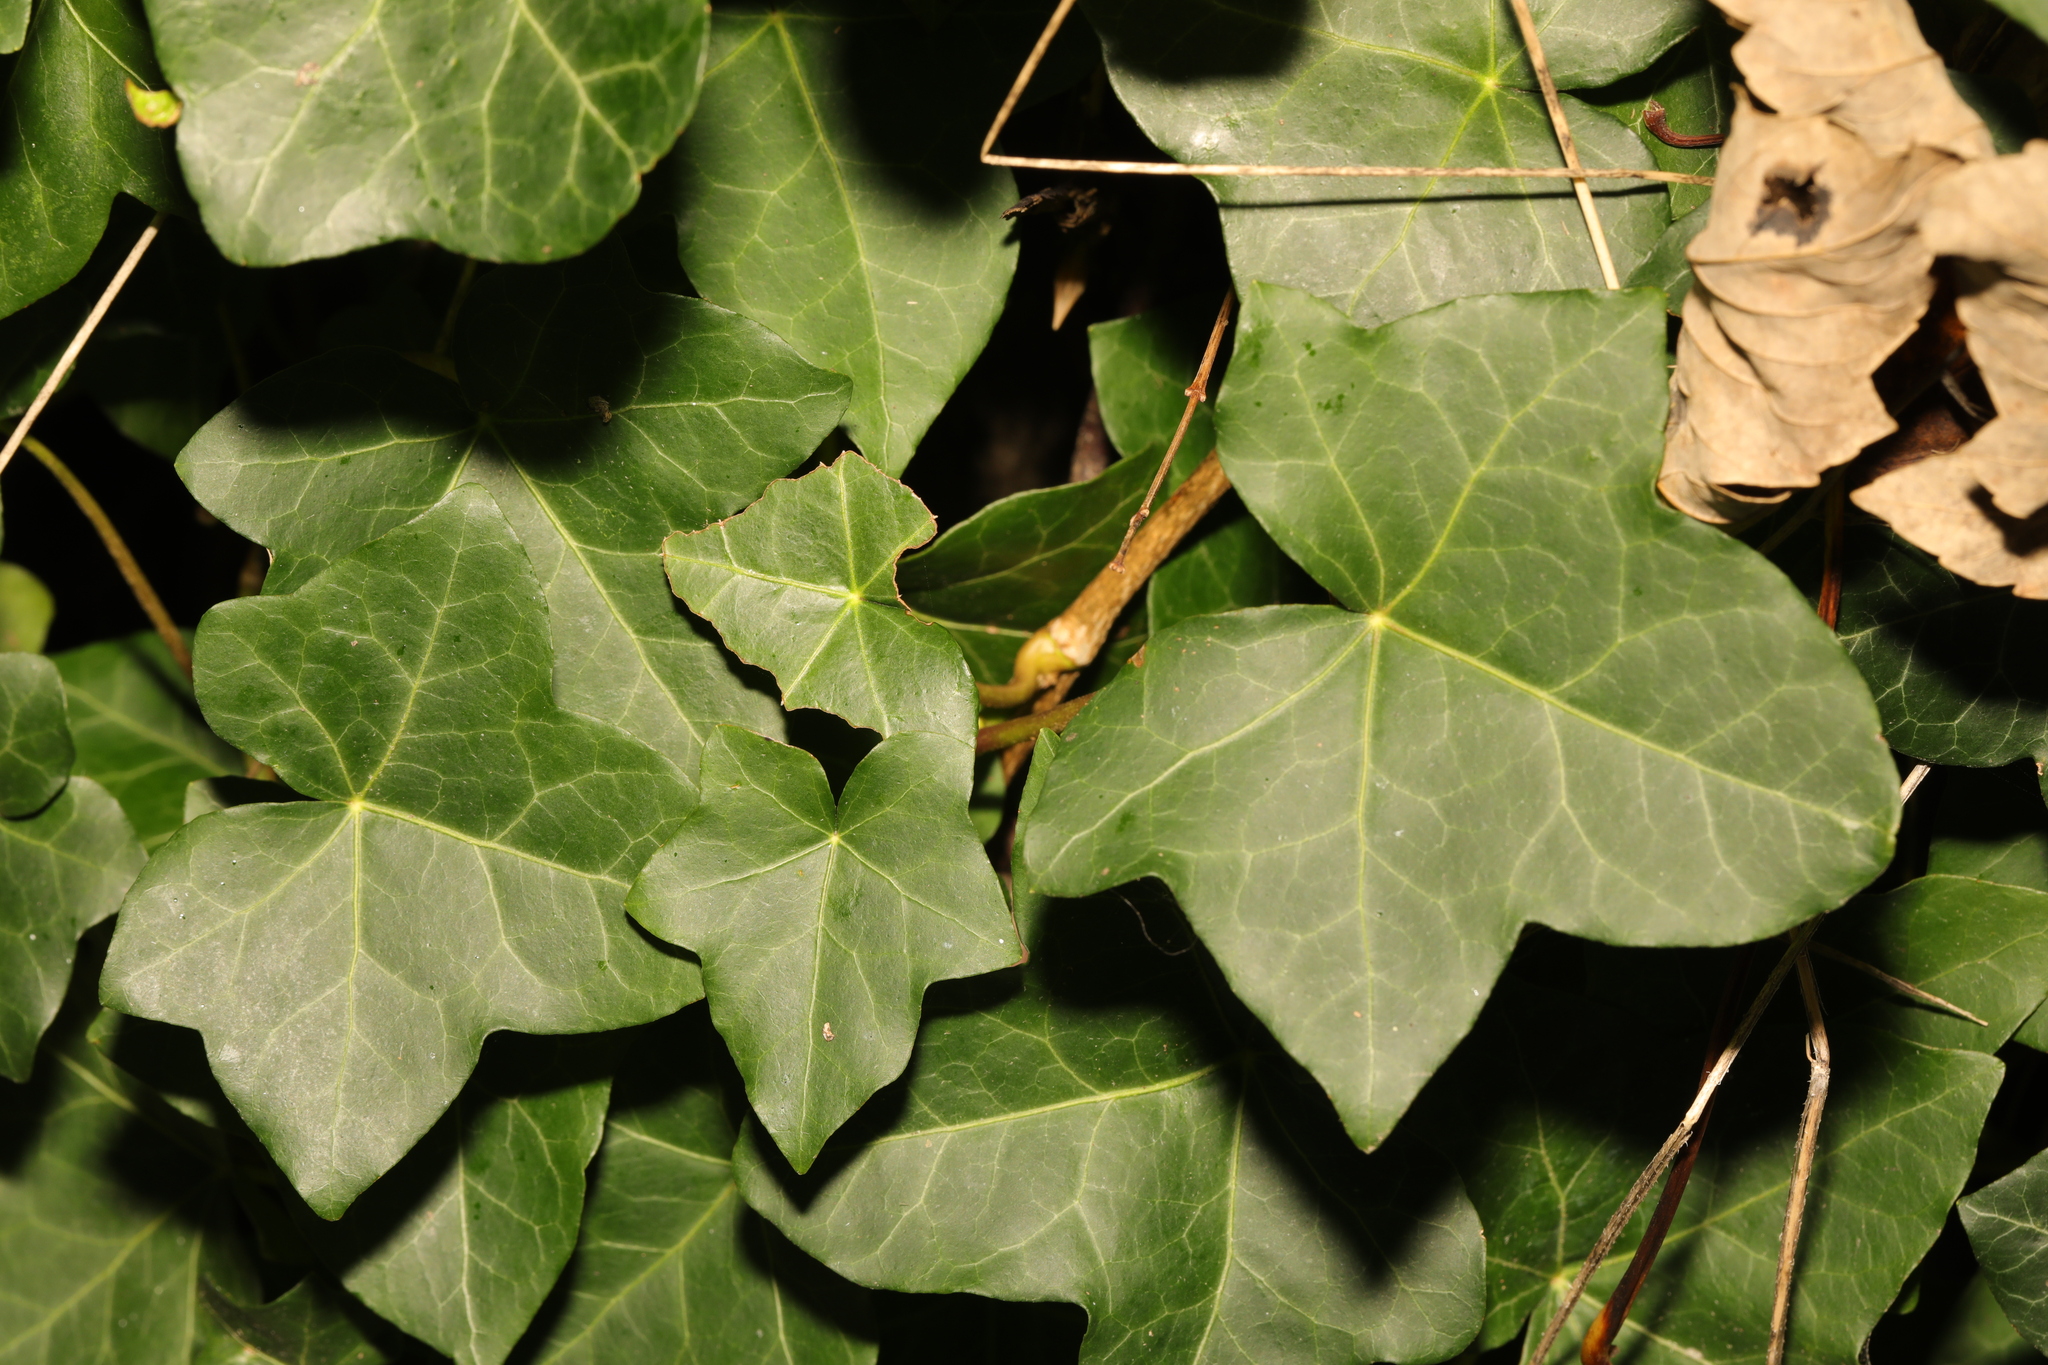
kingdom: Plantae
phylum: Tracheophyta
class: Magnoliopsida
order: Apiales
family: Araliaceae
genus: Hedera
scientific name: Hedera helix
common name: Ivy
